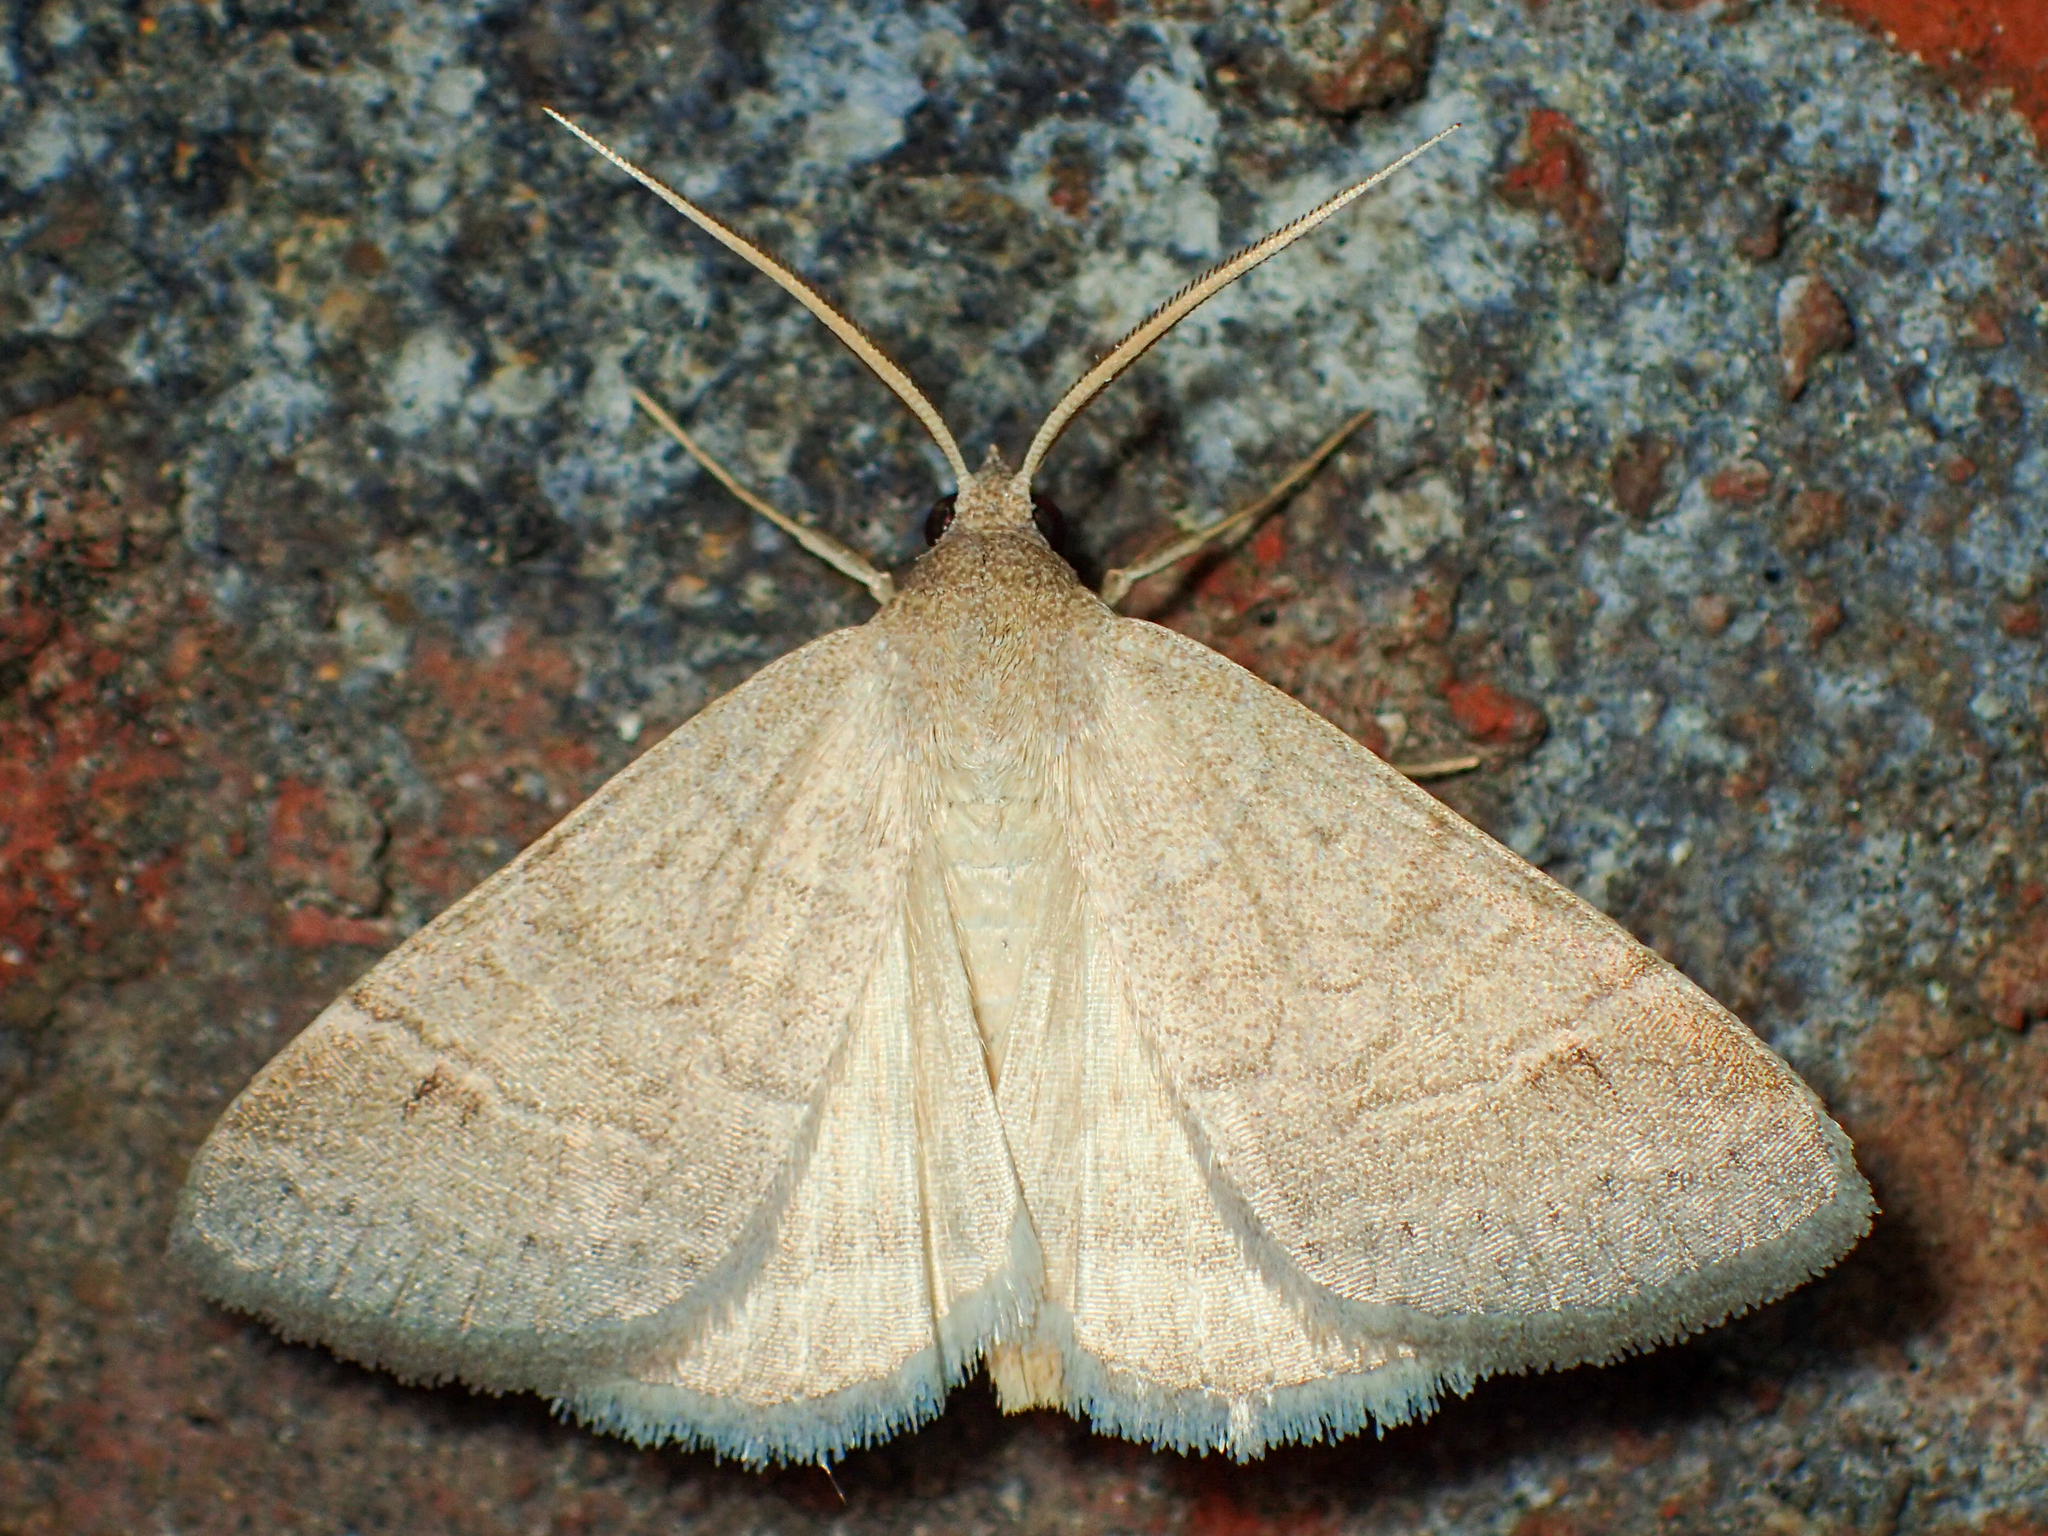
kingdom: Animalia
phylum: Arthropoda
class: Insecta
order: Lepidoptera
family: Erebidae
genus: Caenurgia
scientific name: Caenurgia chloropha
